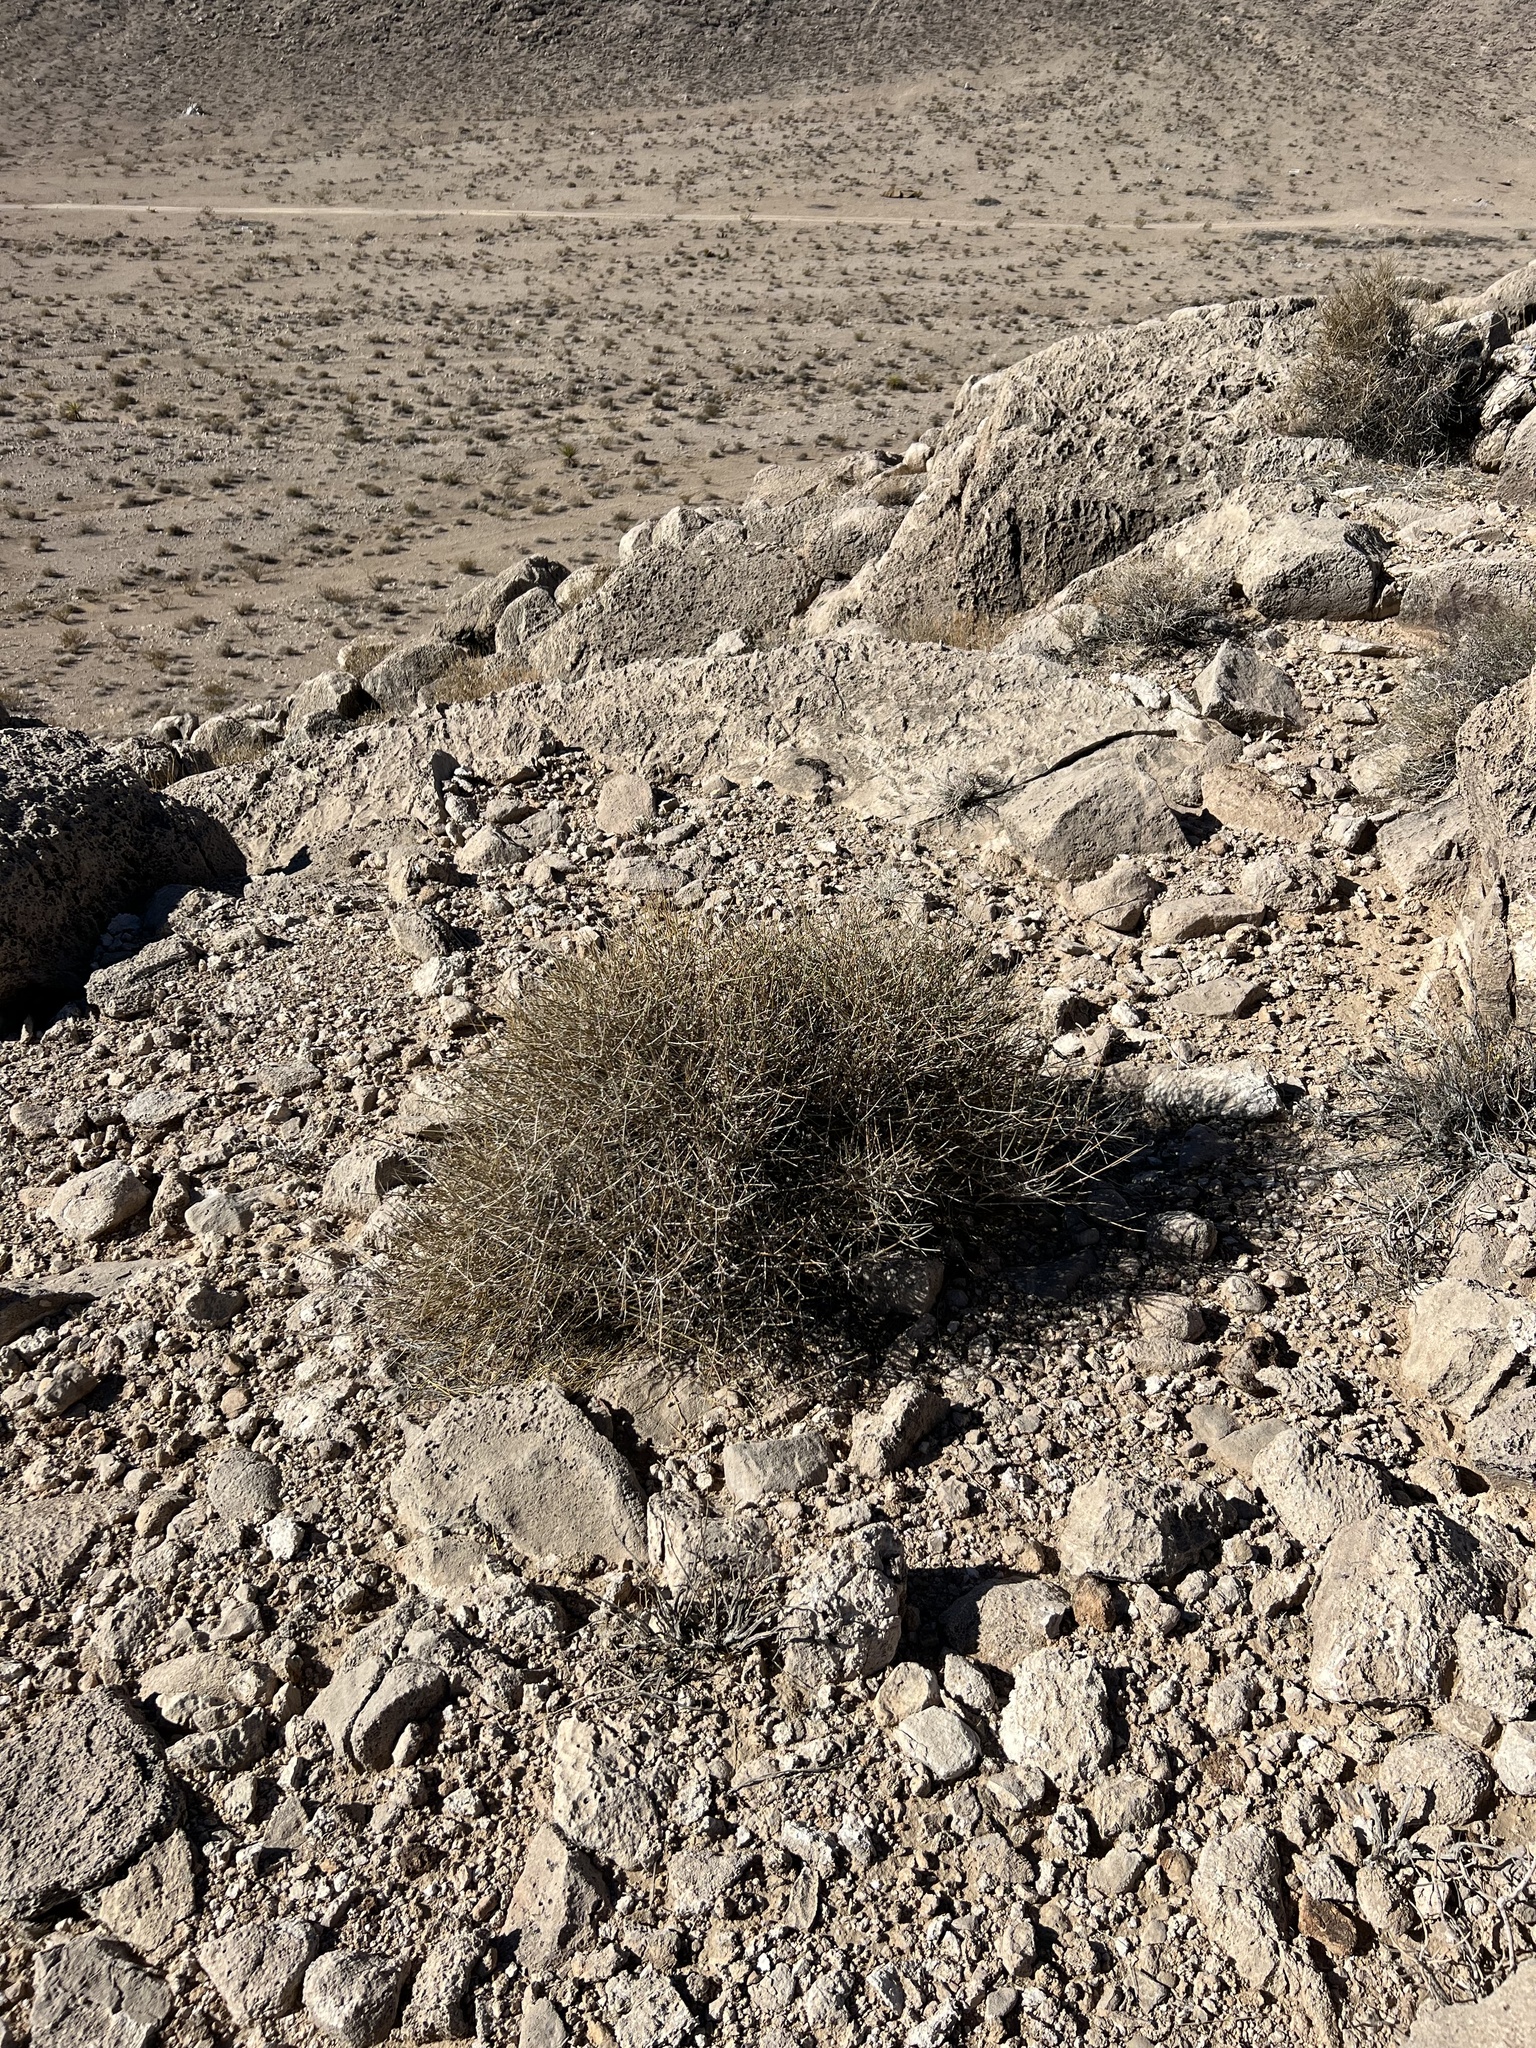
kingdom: Plantae
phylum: Tracheophyta
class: Gnetopsida
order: Ephedrales
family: Ephedraceae
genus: Ephedra
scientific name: Ephedra nevadensis
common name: Gray ephedra
